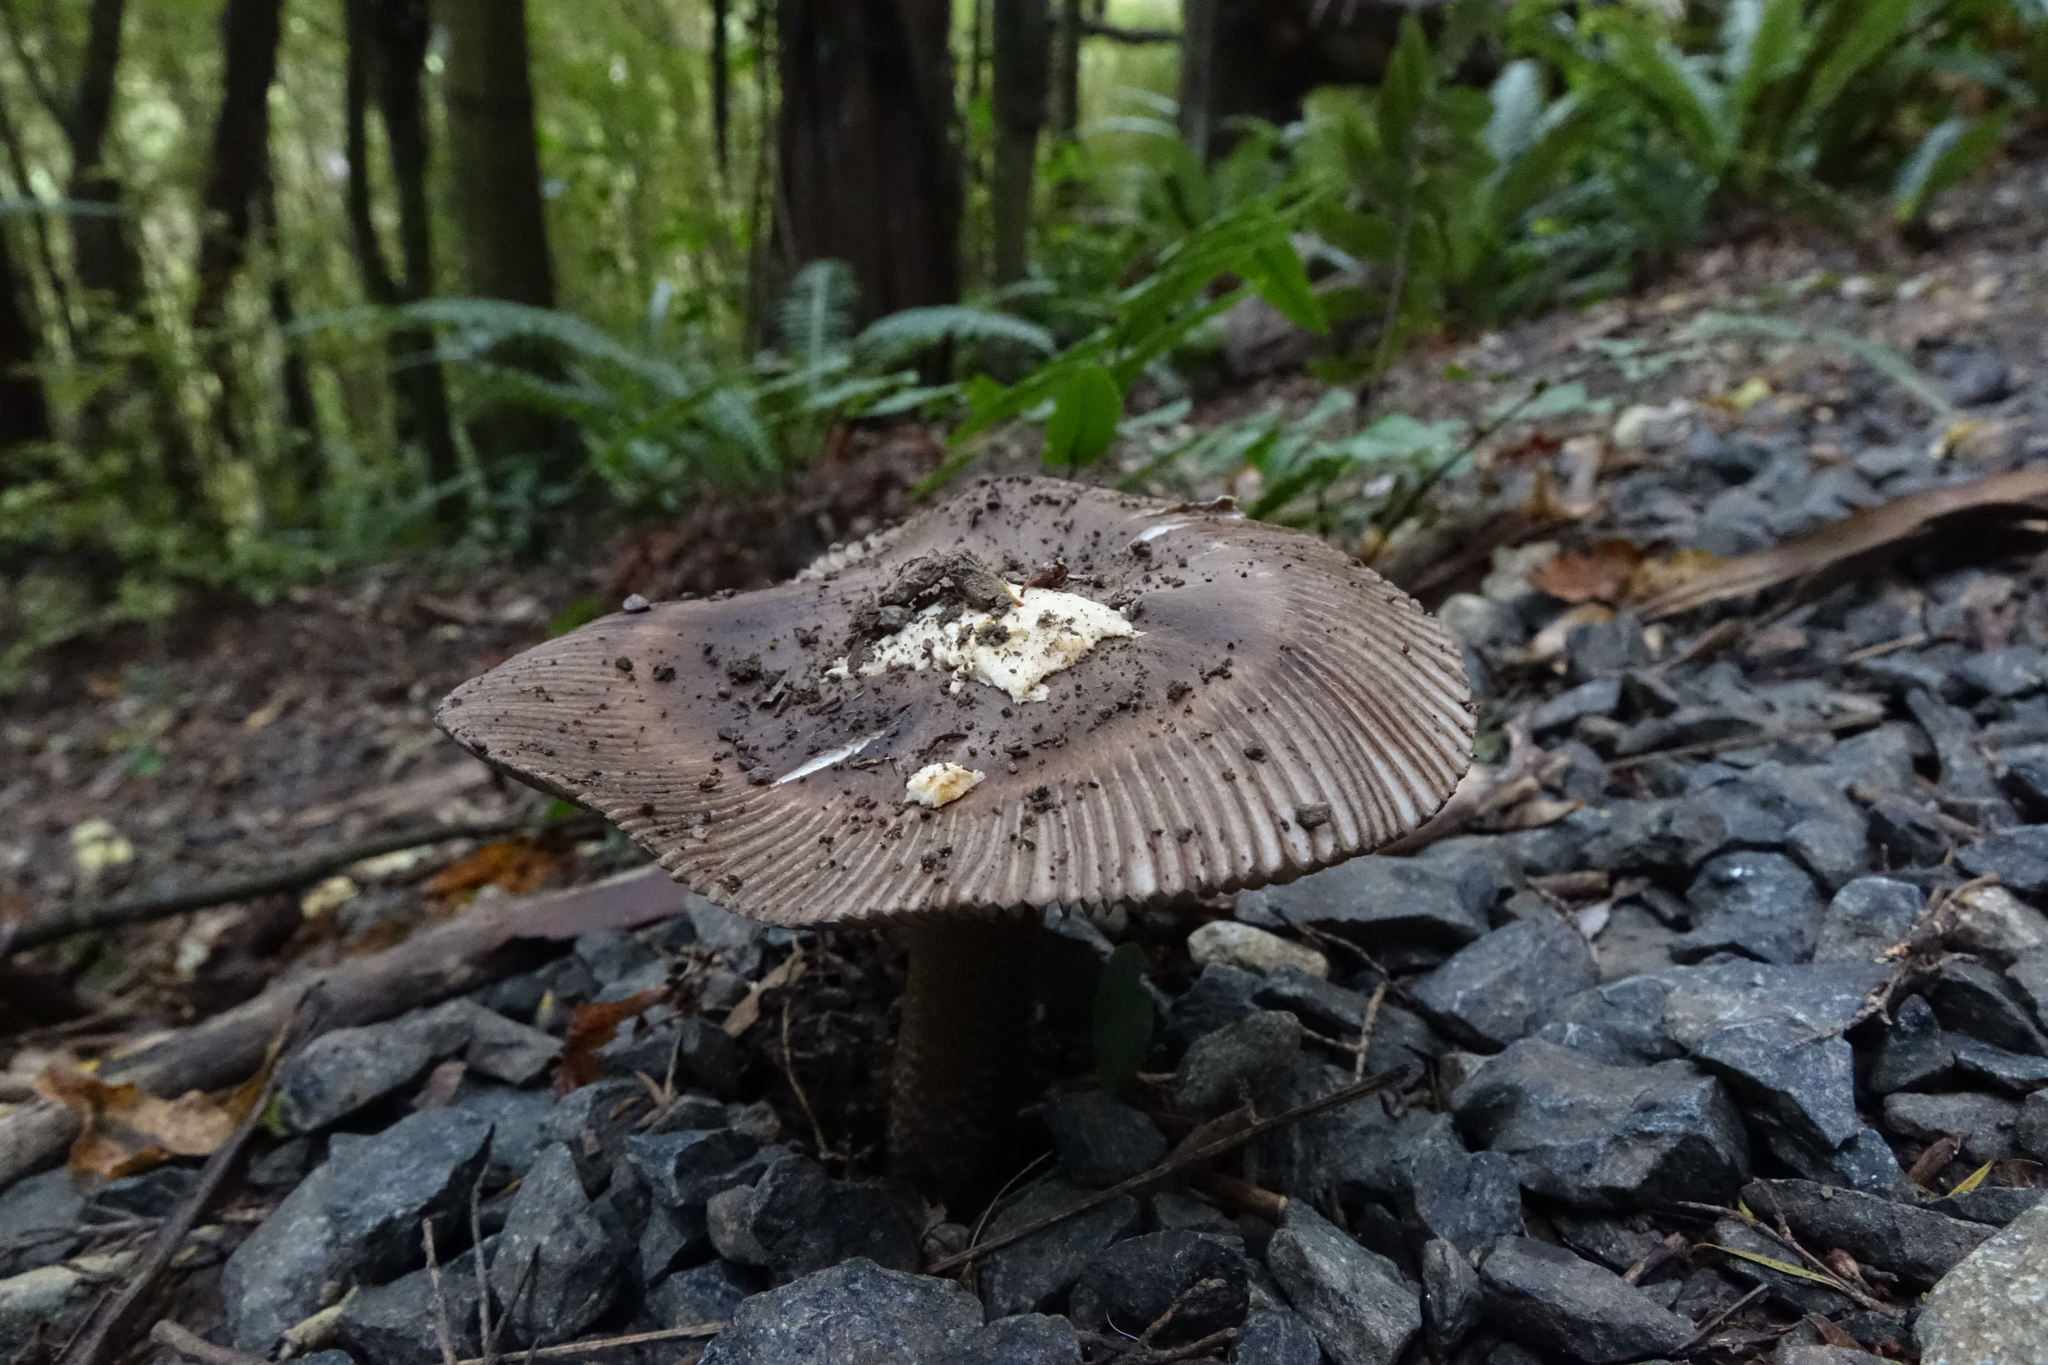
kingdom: Fungi
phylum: Basidiomycota
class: Agaricomycetes
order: Agaricales
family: Amanitaceae
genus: Amanita
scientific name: Amanita pekeoides
